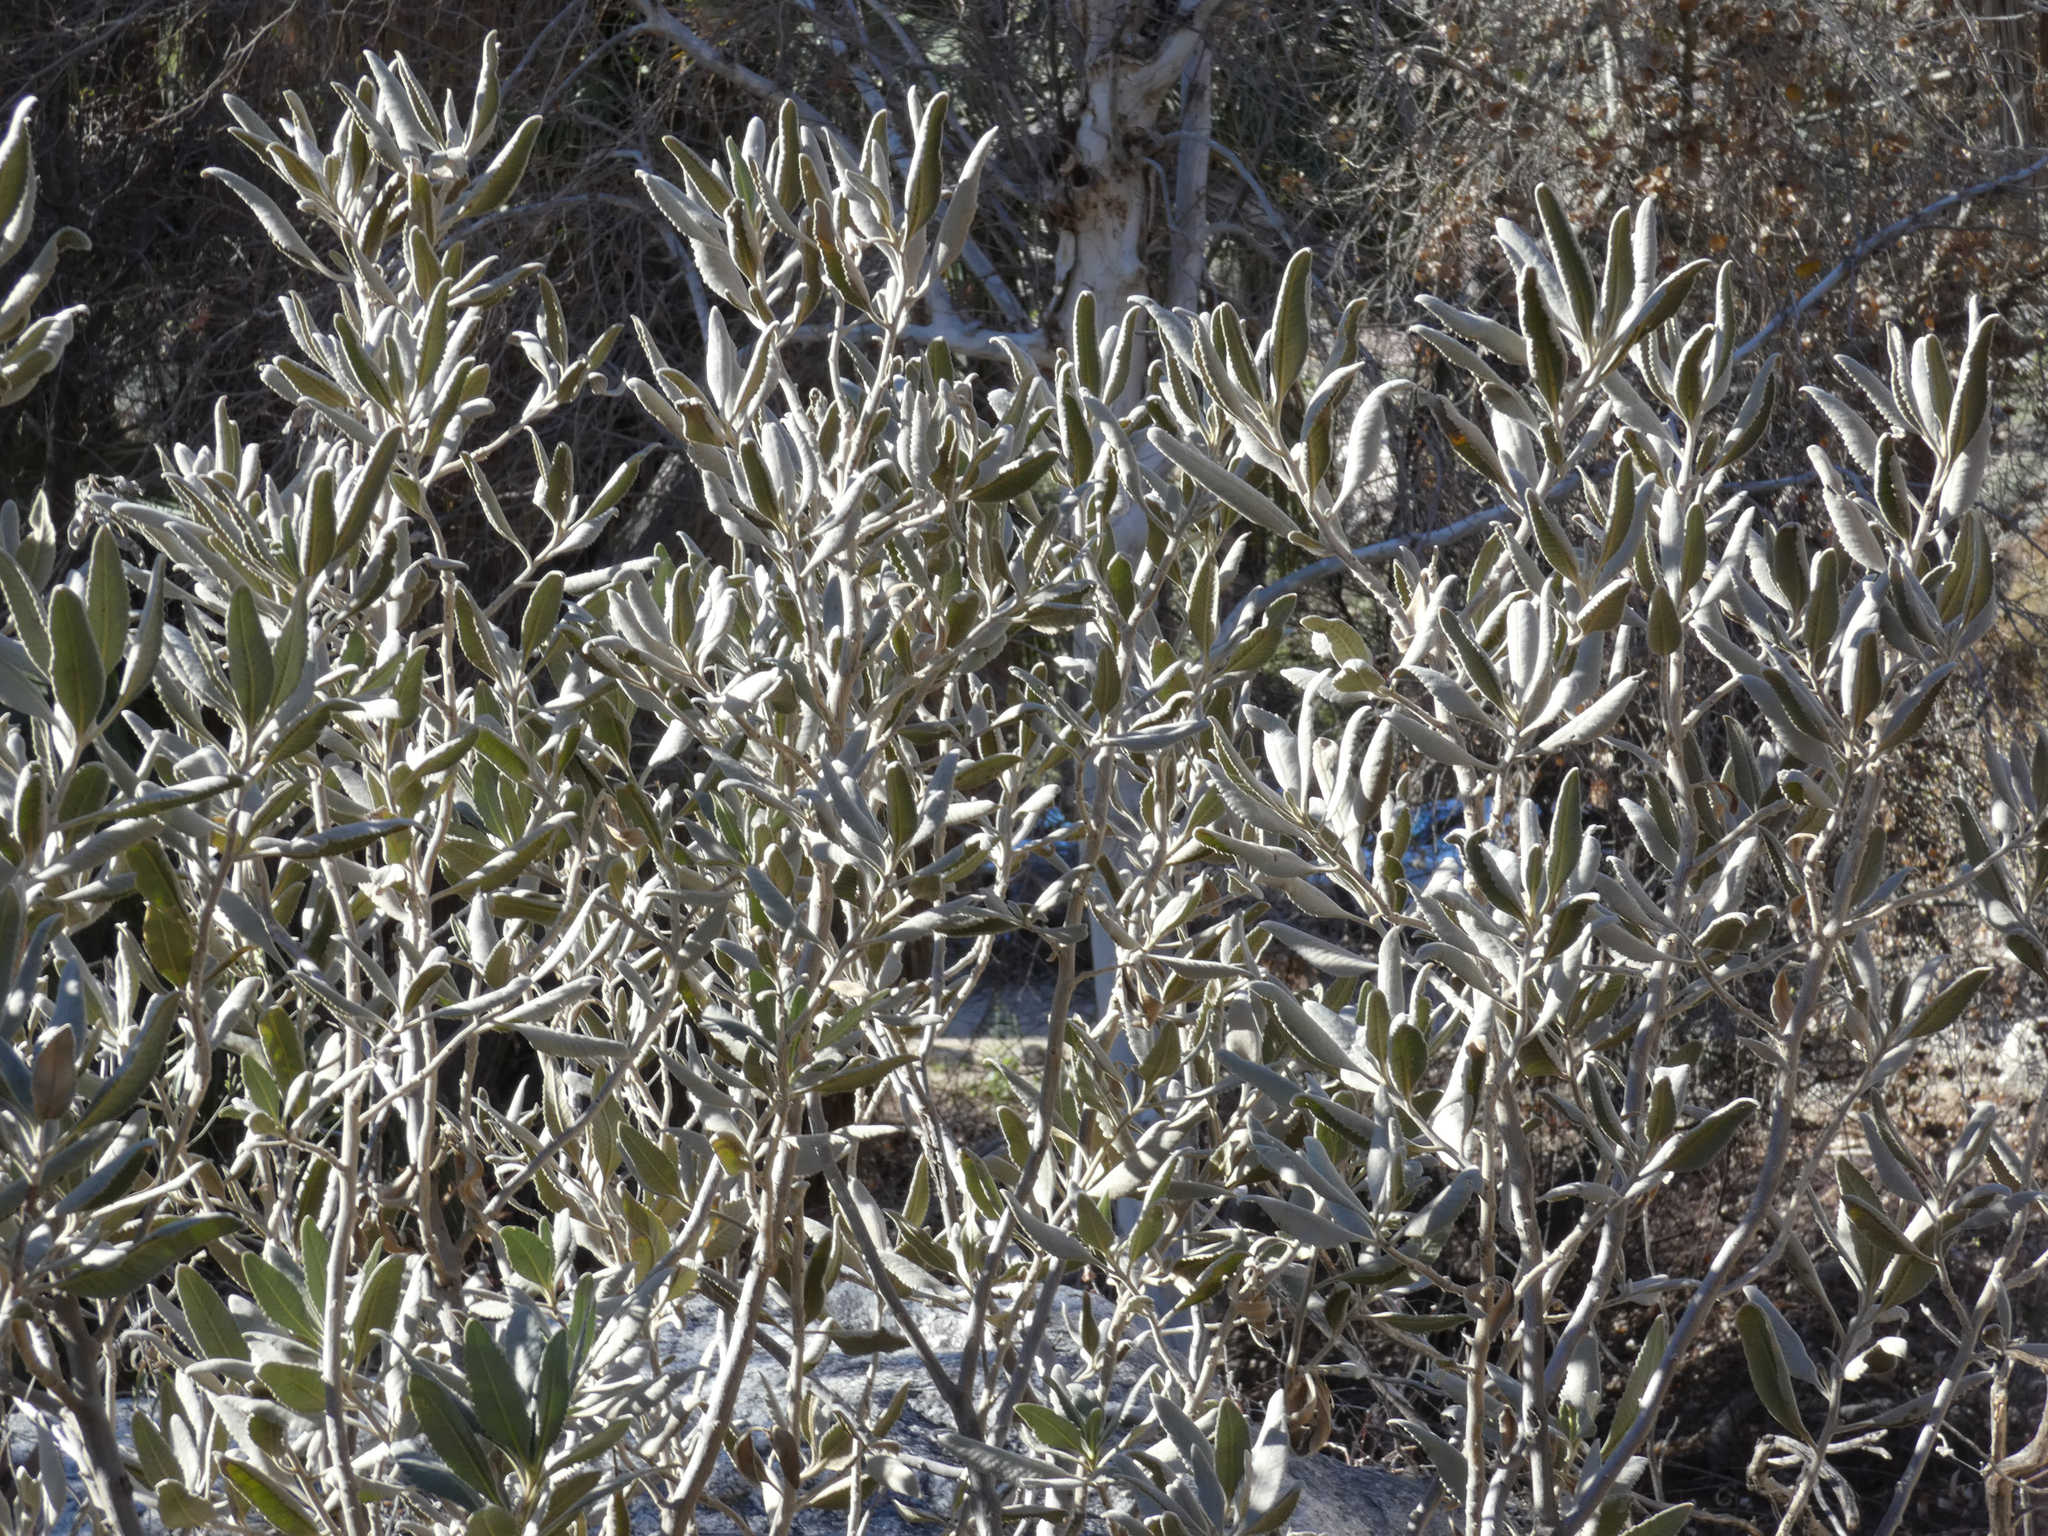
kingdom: Plantae
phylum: Tracheophyta
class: Magnoliopsida
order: Boraginales
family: Namaceae
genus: Eriodictyon
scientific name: Eriodictyon crassifolium
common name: Thick-leaf yerba-santa
